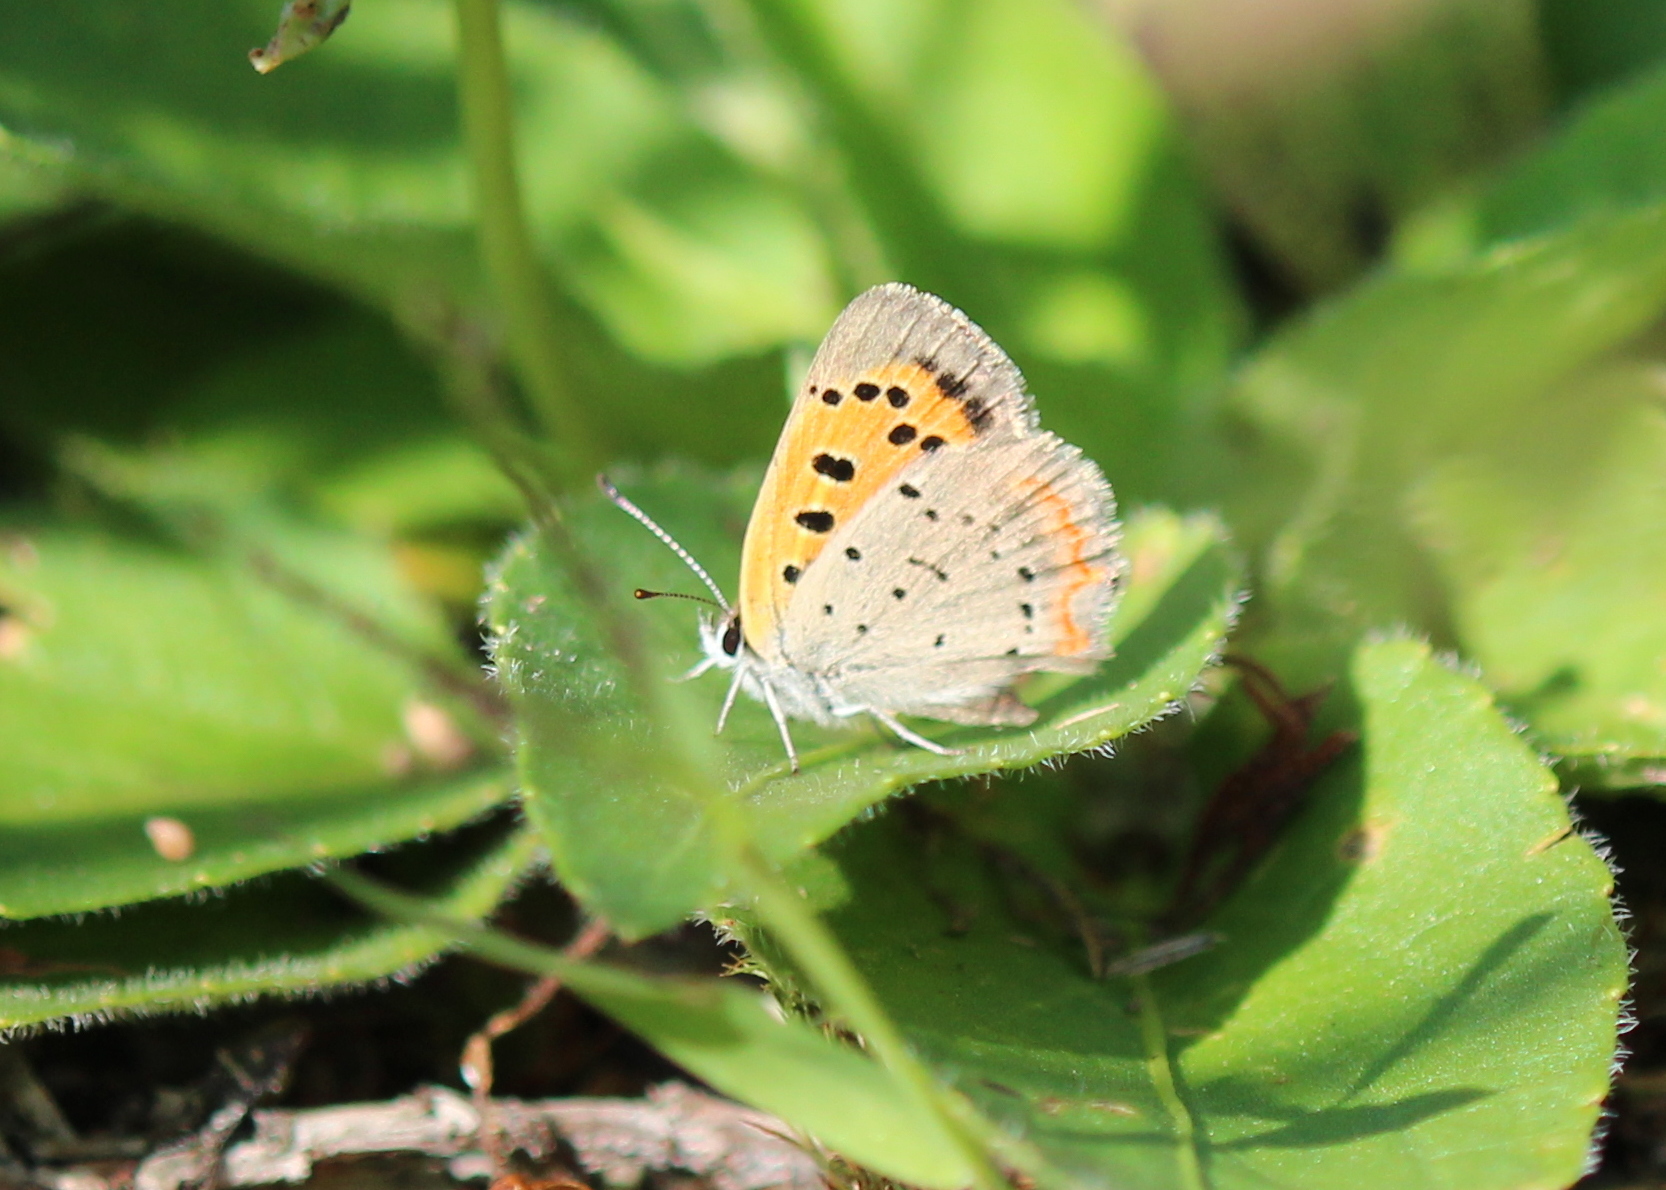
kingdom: Animalia
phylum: Arthropoda
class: Insecta
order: Lepidoptera
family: Lycaenidae
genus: Lycaena
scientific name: Lycaena hypophlaeas
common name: American copper
